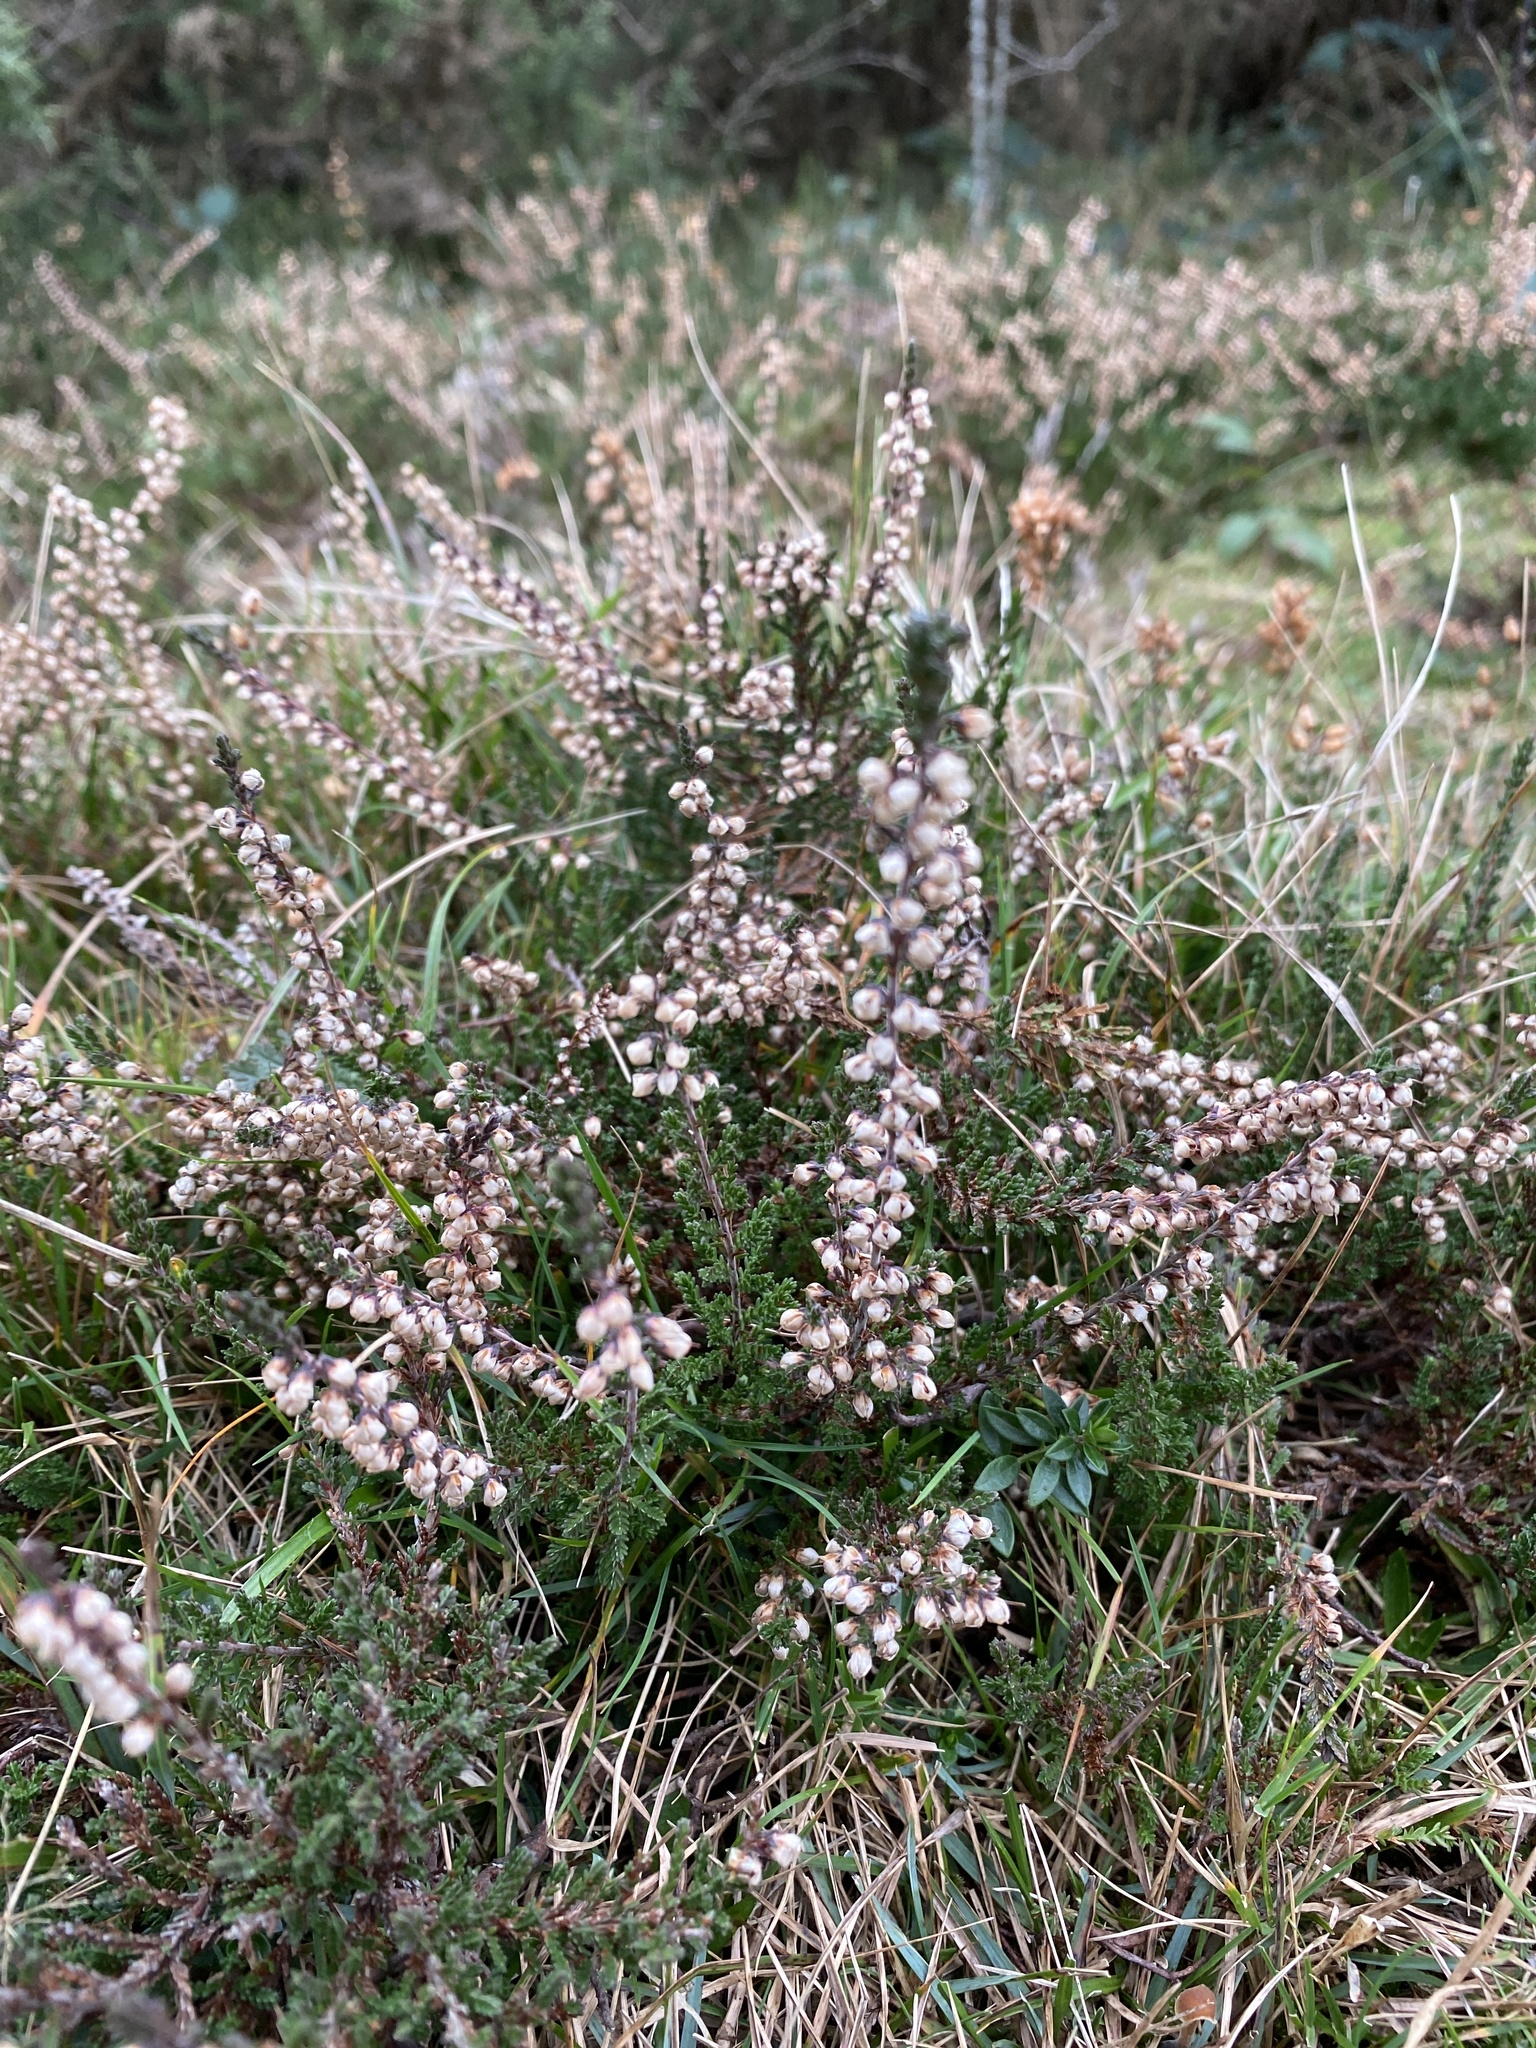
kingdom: Plantae
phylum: Tracheophyta
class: Magnoliopsida
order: Ericales
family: Ericaceae
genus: Calluna
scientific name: Calluna vulgaris
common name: Heather
